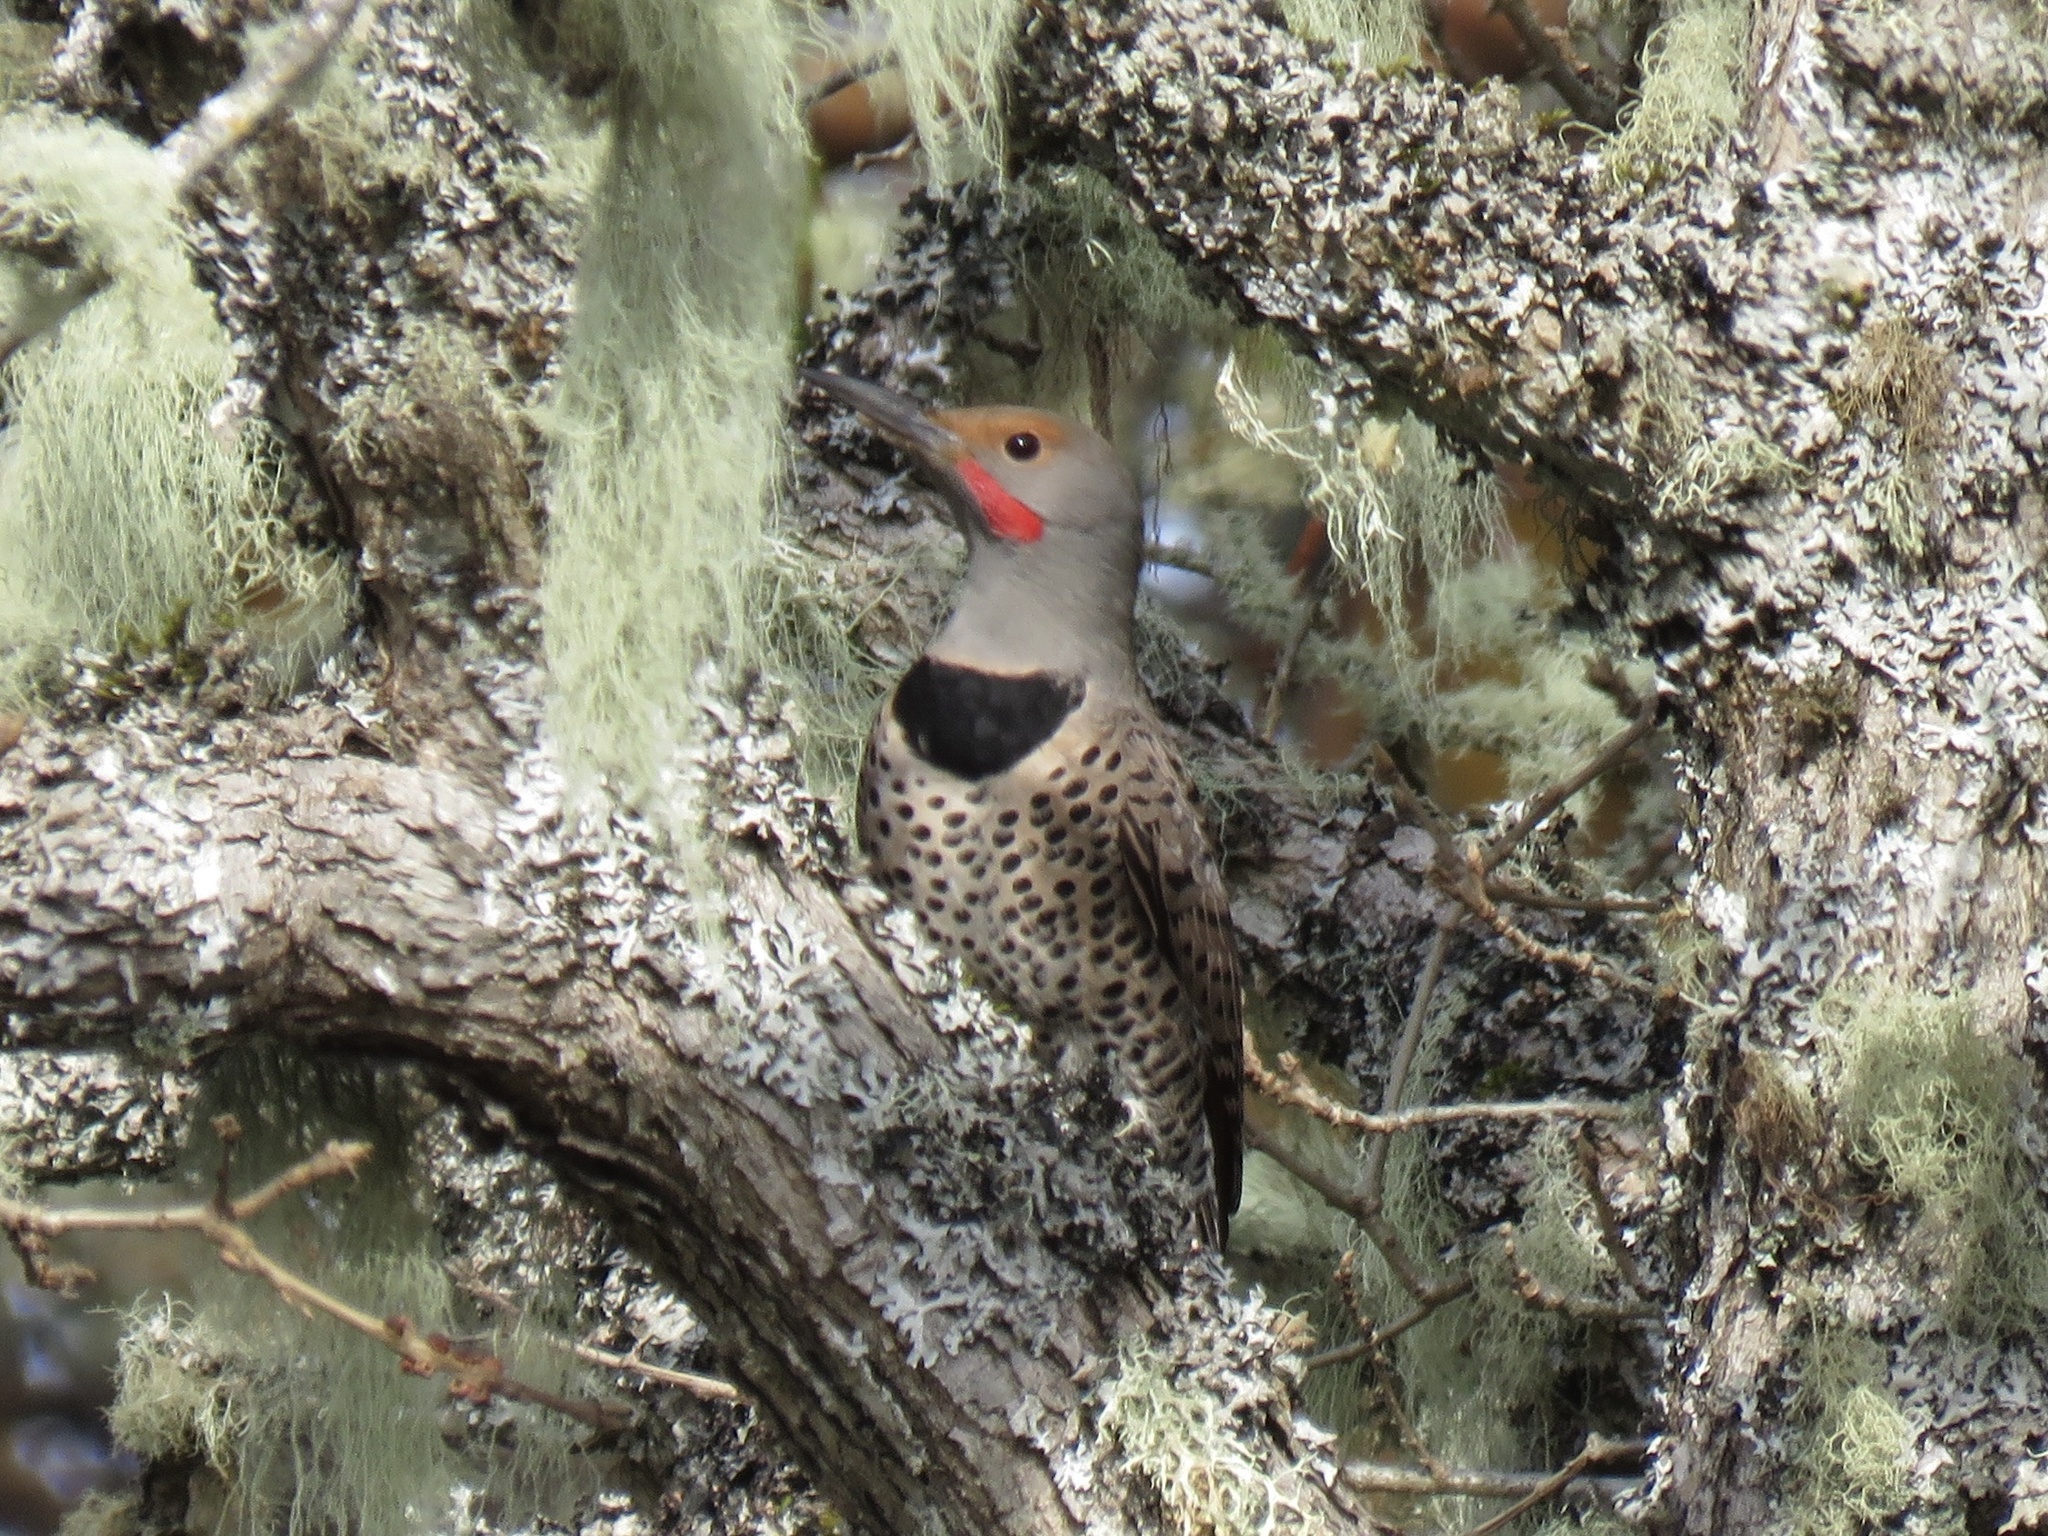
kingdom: Animalia
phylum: Chordata
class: Aves
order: Piciformes
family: Picidae
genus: Colaptes
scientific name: Colaptes auratus
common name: Northern flicker
